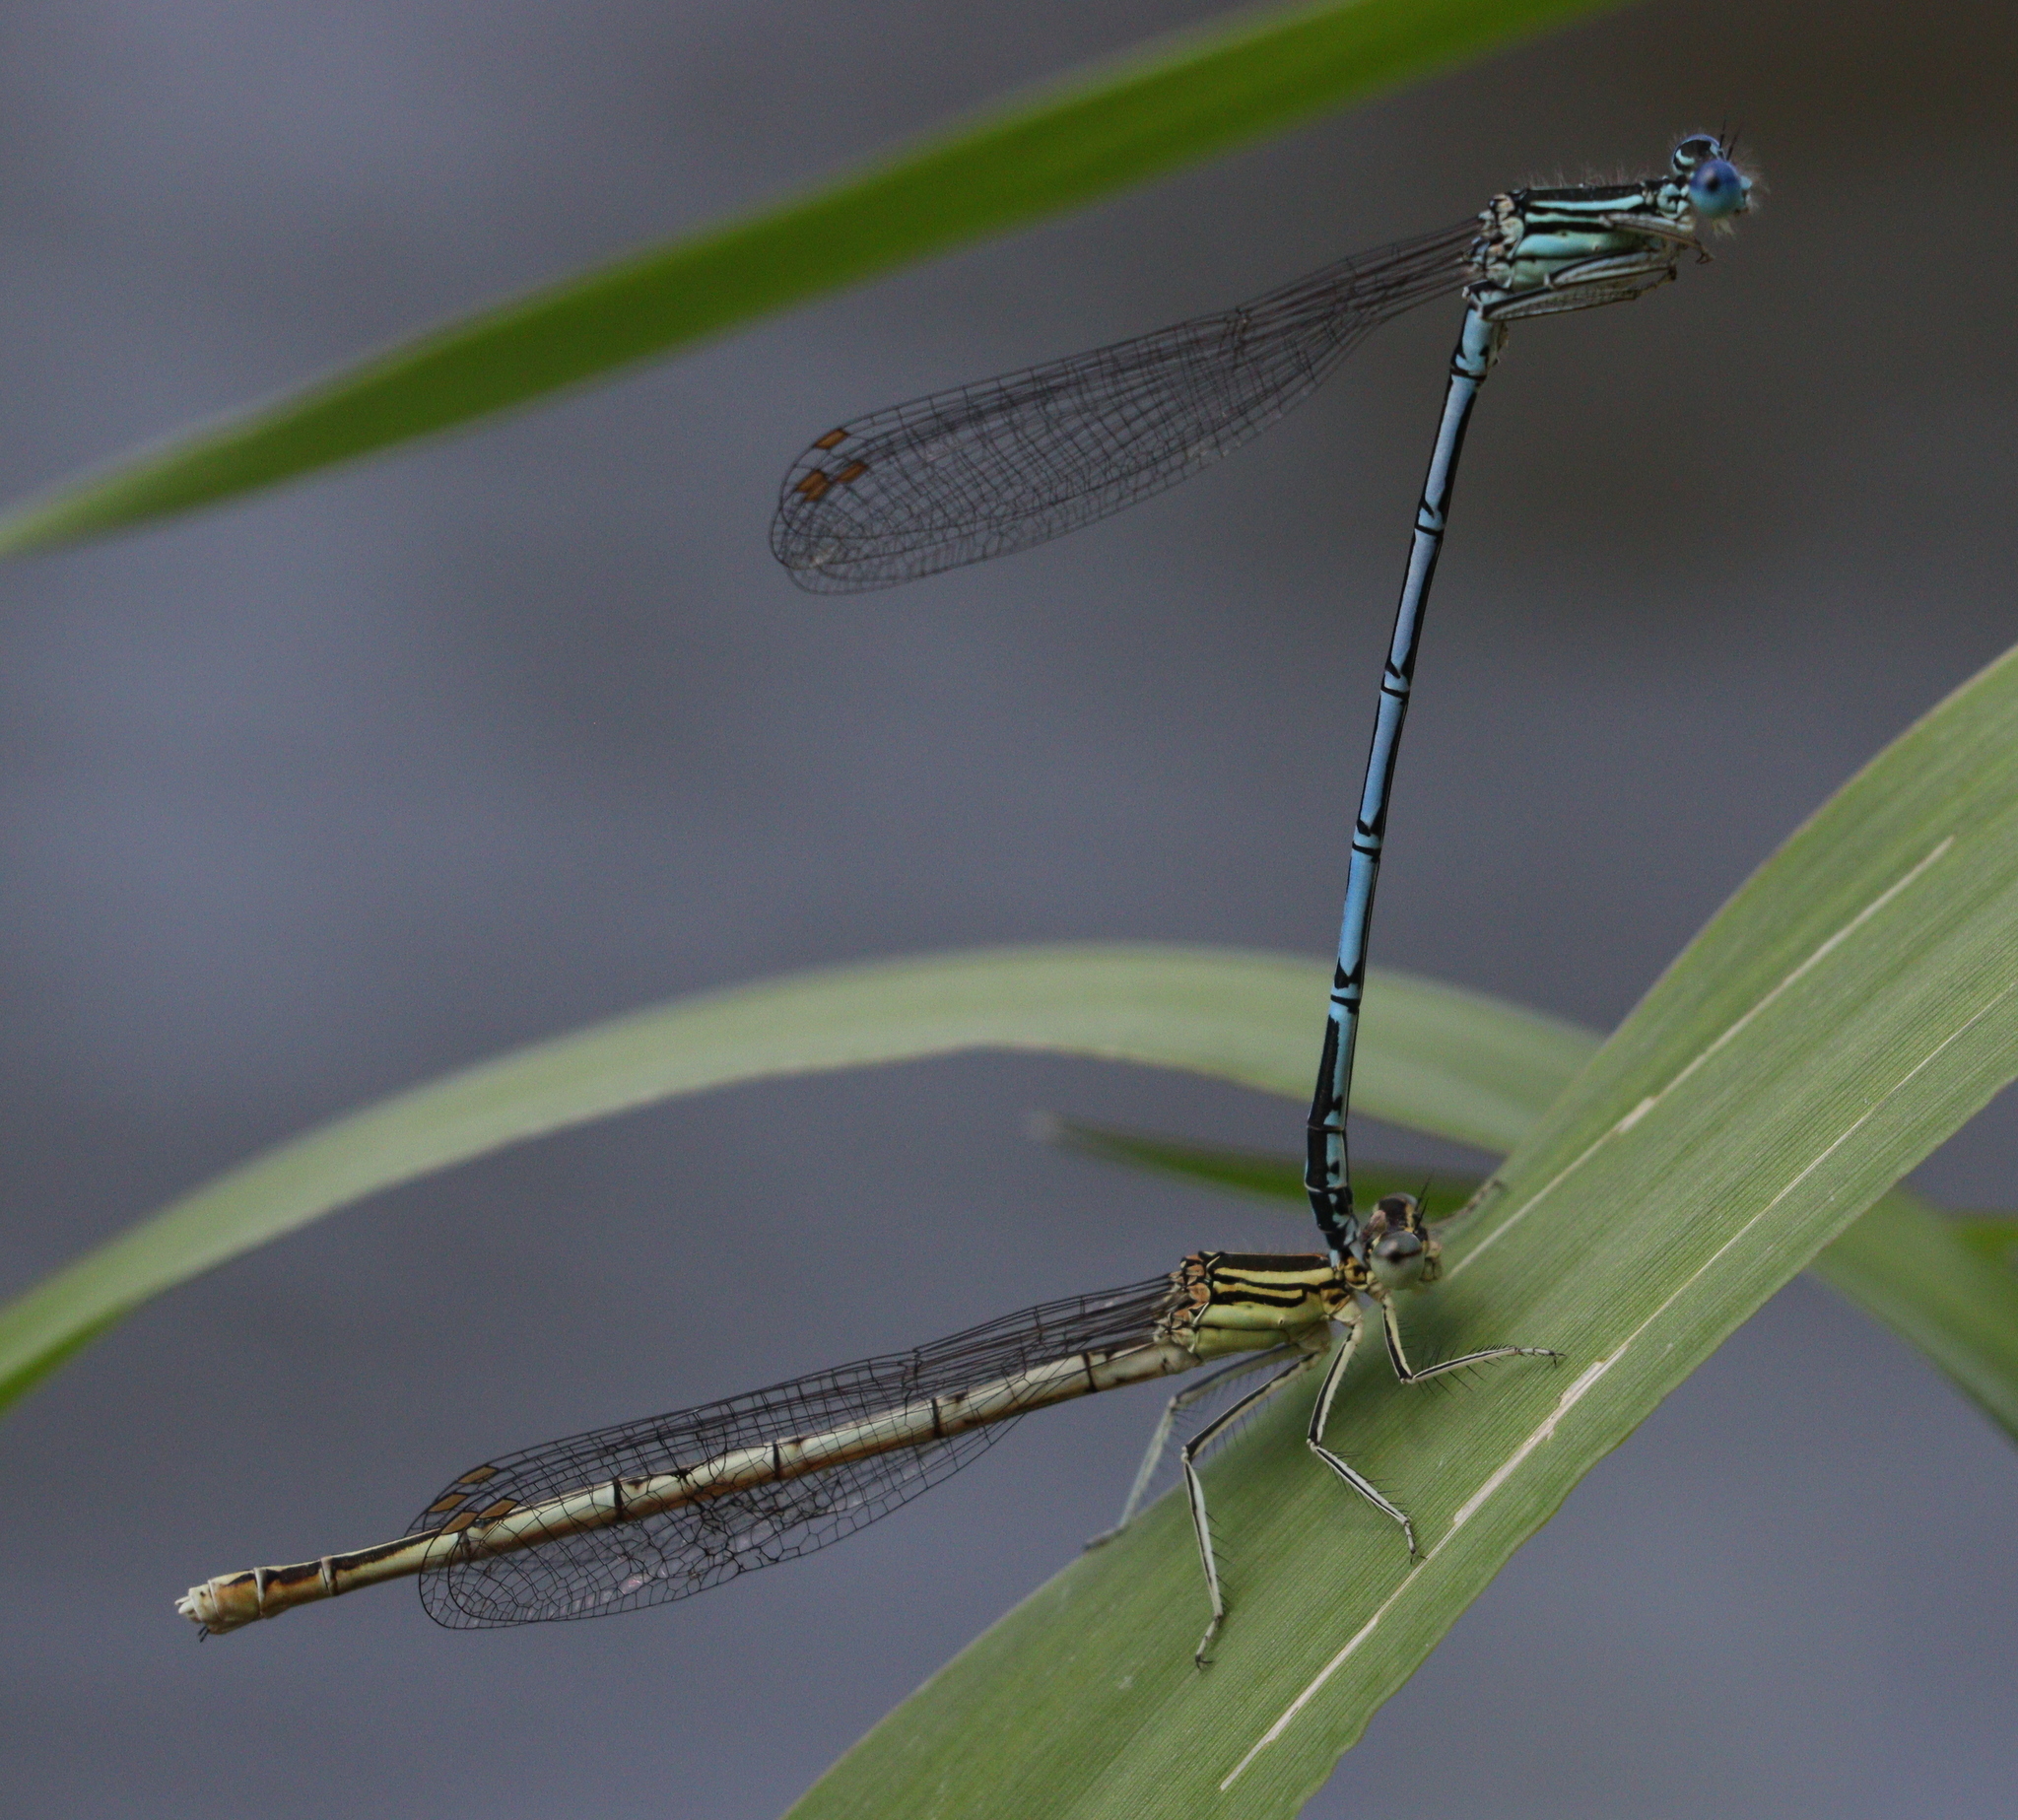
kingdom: Animalia
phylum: Arthropoda
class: Insecta
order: Odonata
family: Platycnemididae
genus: Platycnemis
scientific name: Platycnemis pennipes
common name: White-legged damselfly
